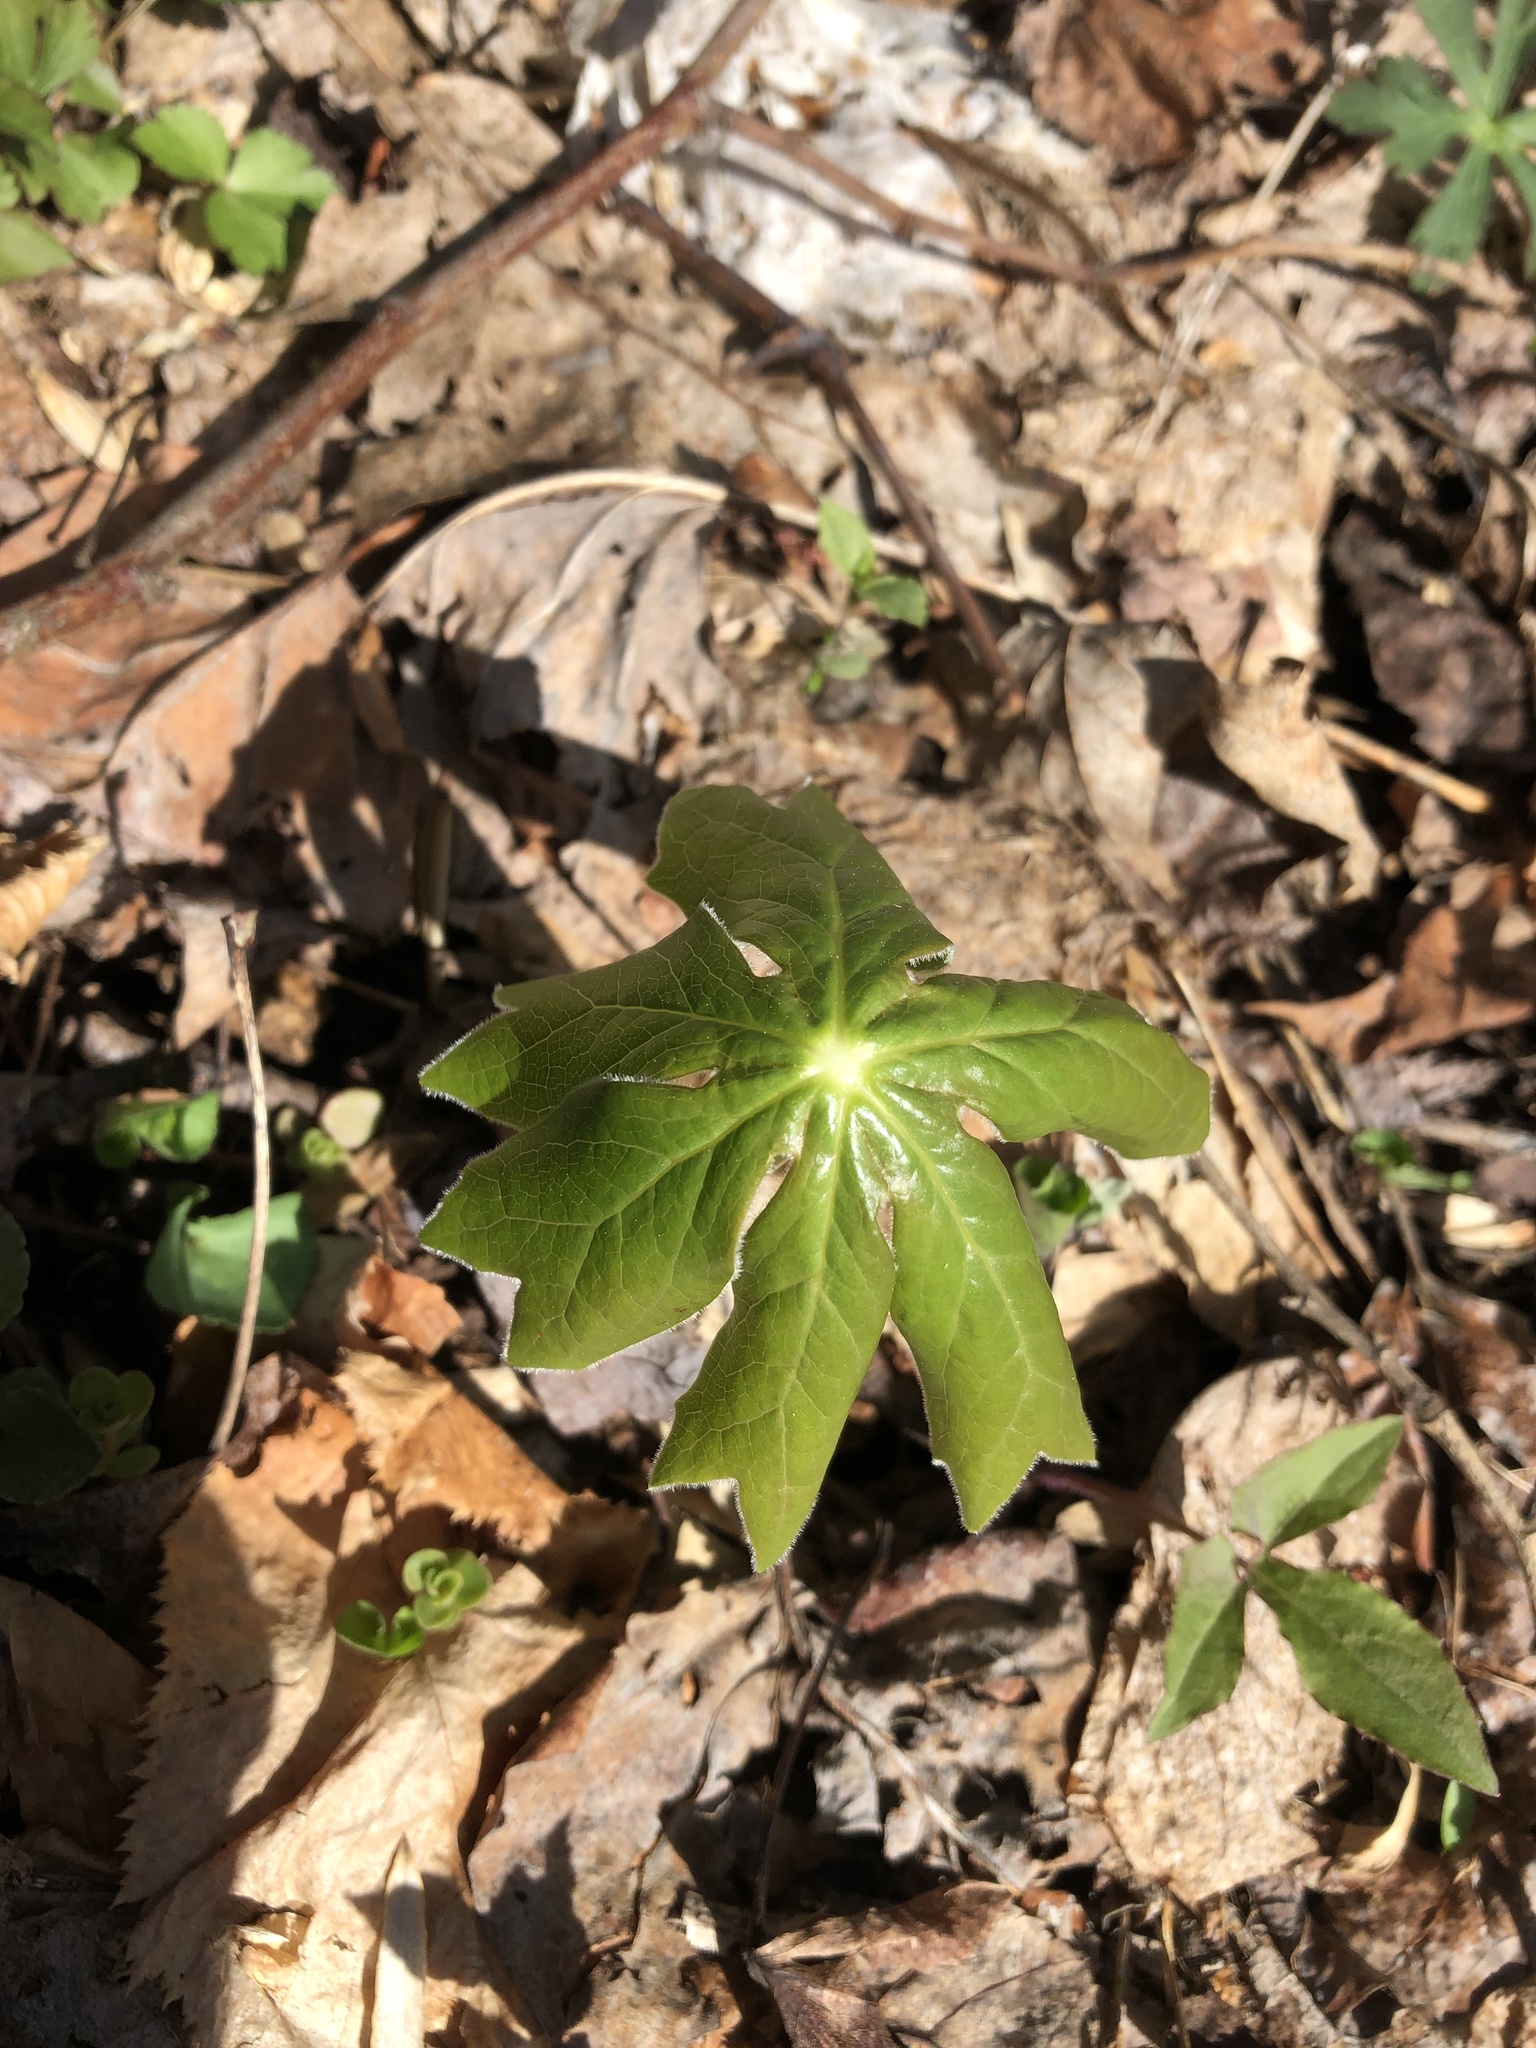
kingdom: Plantae
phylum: Tracheophyta
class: Magnoliopsida
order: Ranunculales
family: Berberidaceae
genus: Podophyllum
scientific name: Podophyllum peltatum
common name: Wild mandrake
